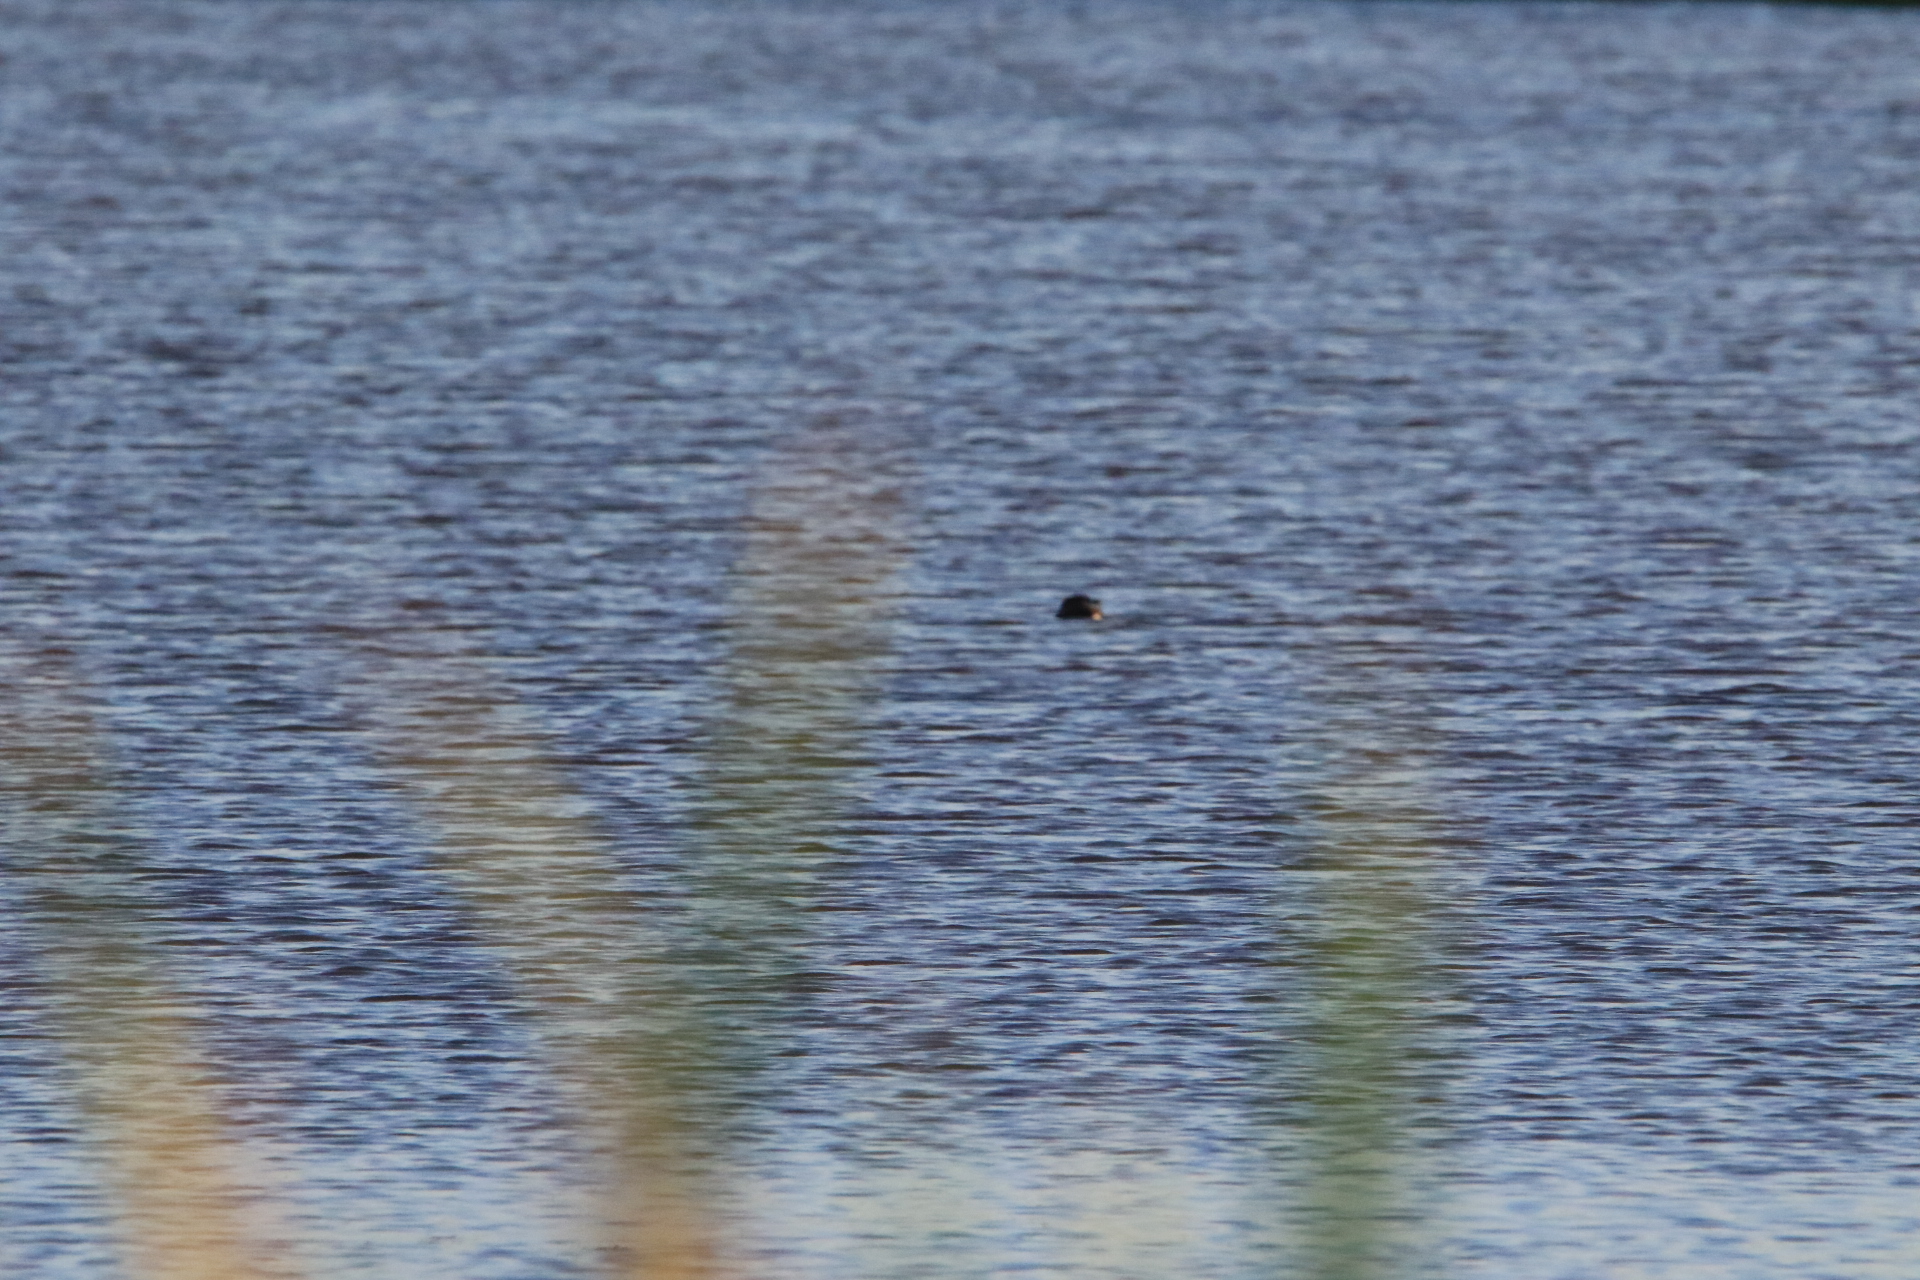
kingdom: Animalia
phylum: Chordata
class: Aves
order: Podicipediformes
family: Podicipedidae
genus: Podilymbus
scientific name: Podilymbus podiceps
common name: Pied-billed grebe
